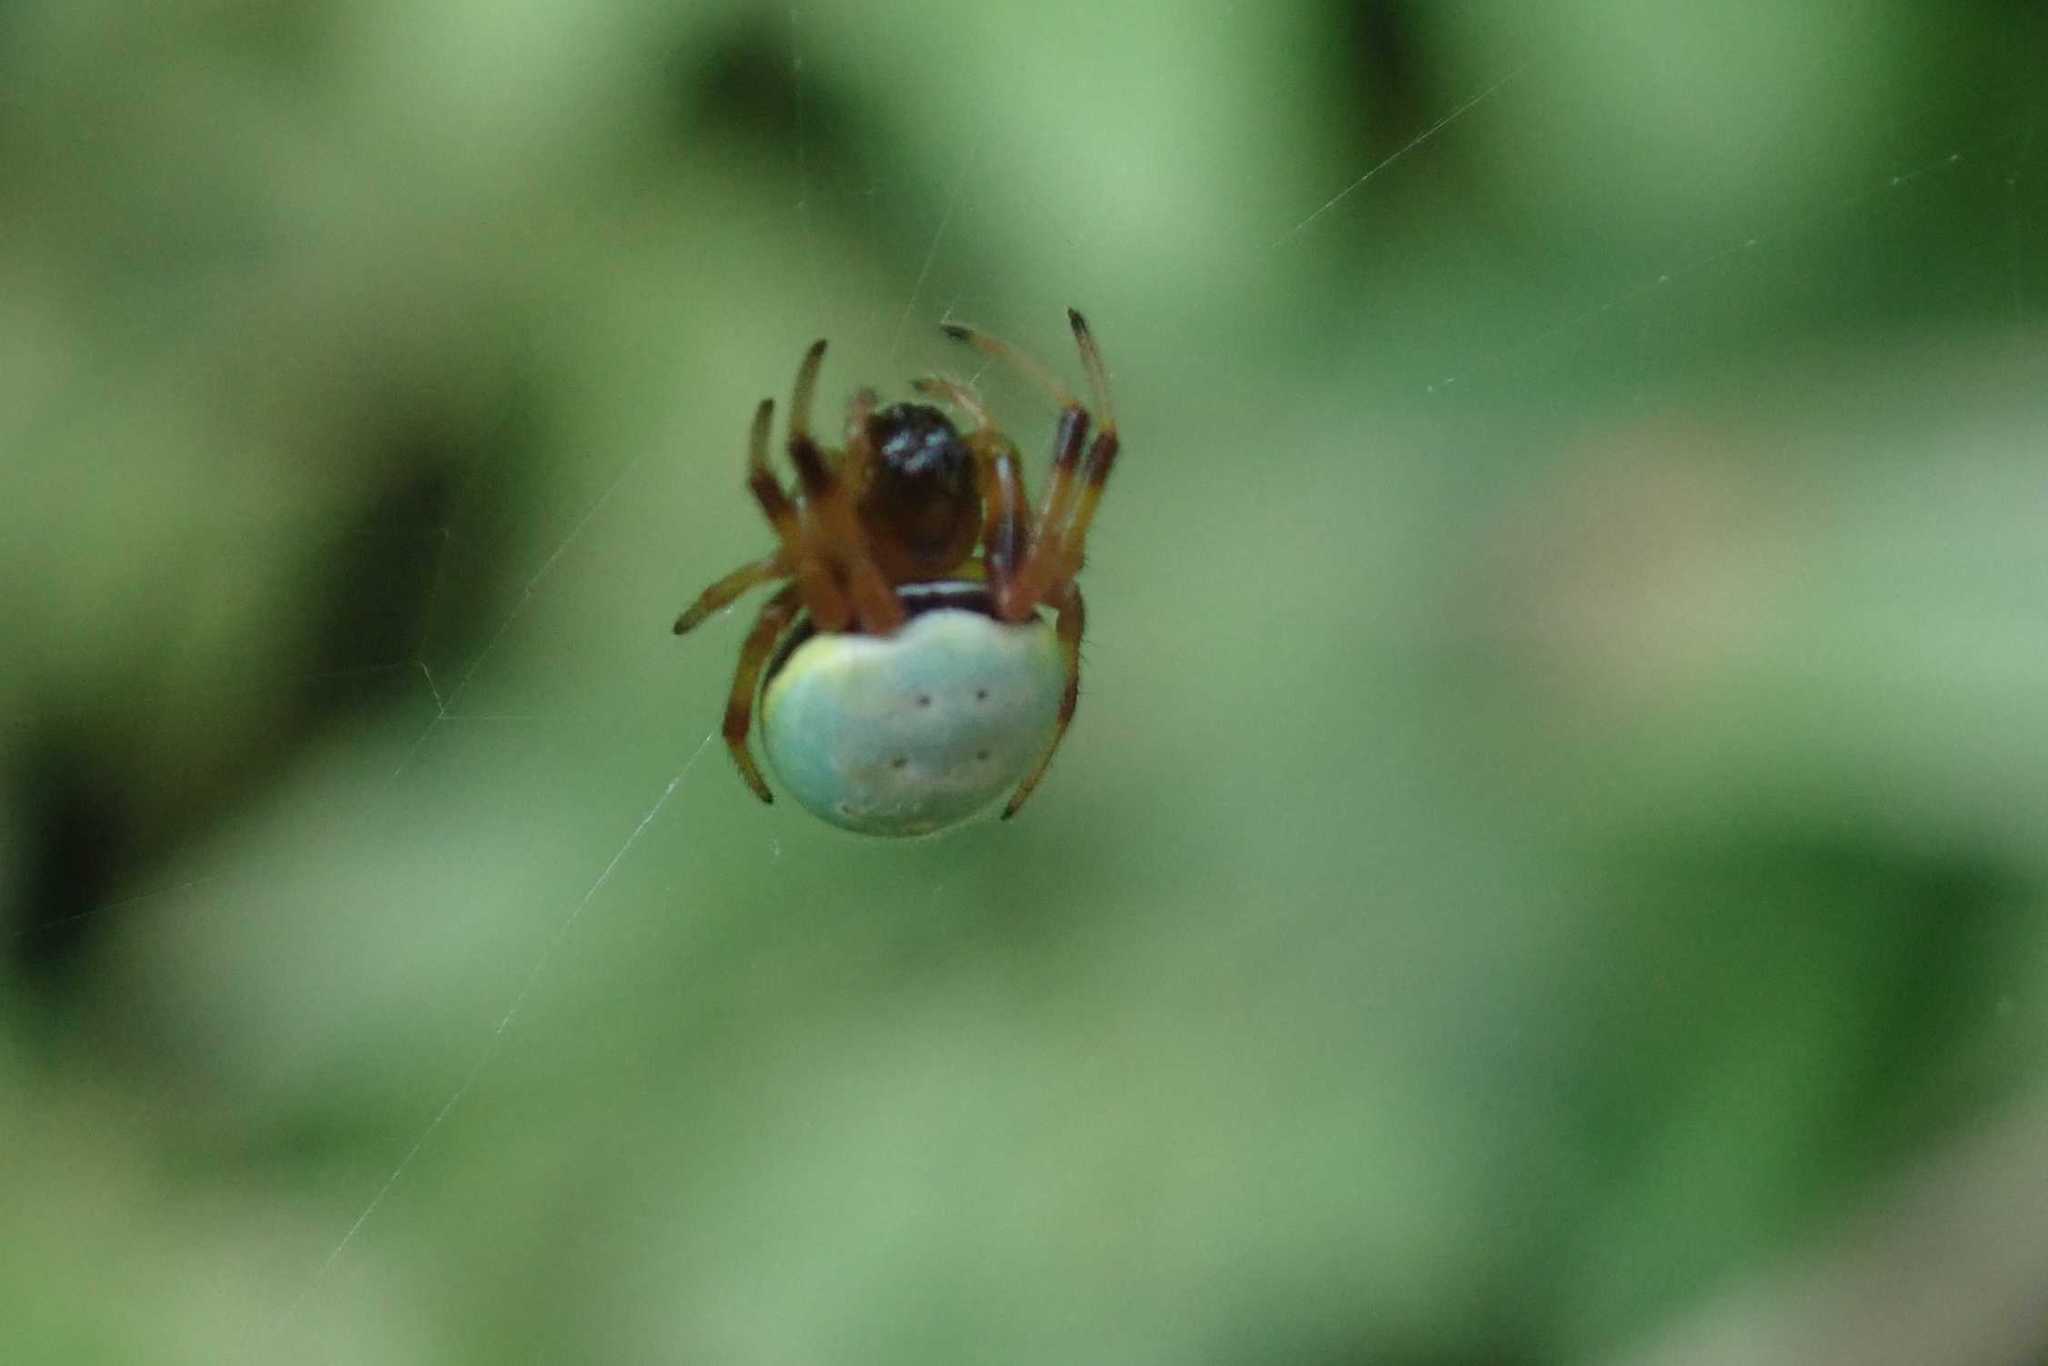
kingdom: Animalia
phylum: Arthropoda
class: Arachnida
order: Araneae
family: Araneidae
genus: Araneus
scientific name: Araneus apricus
